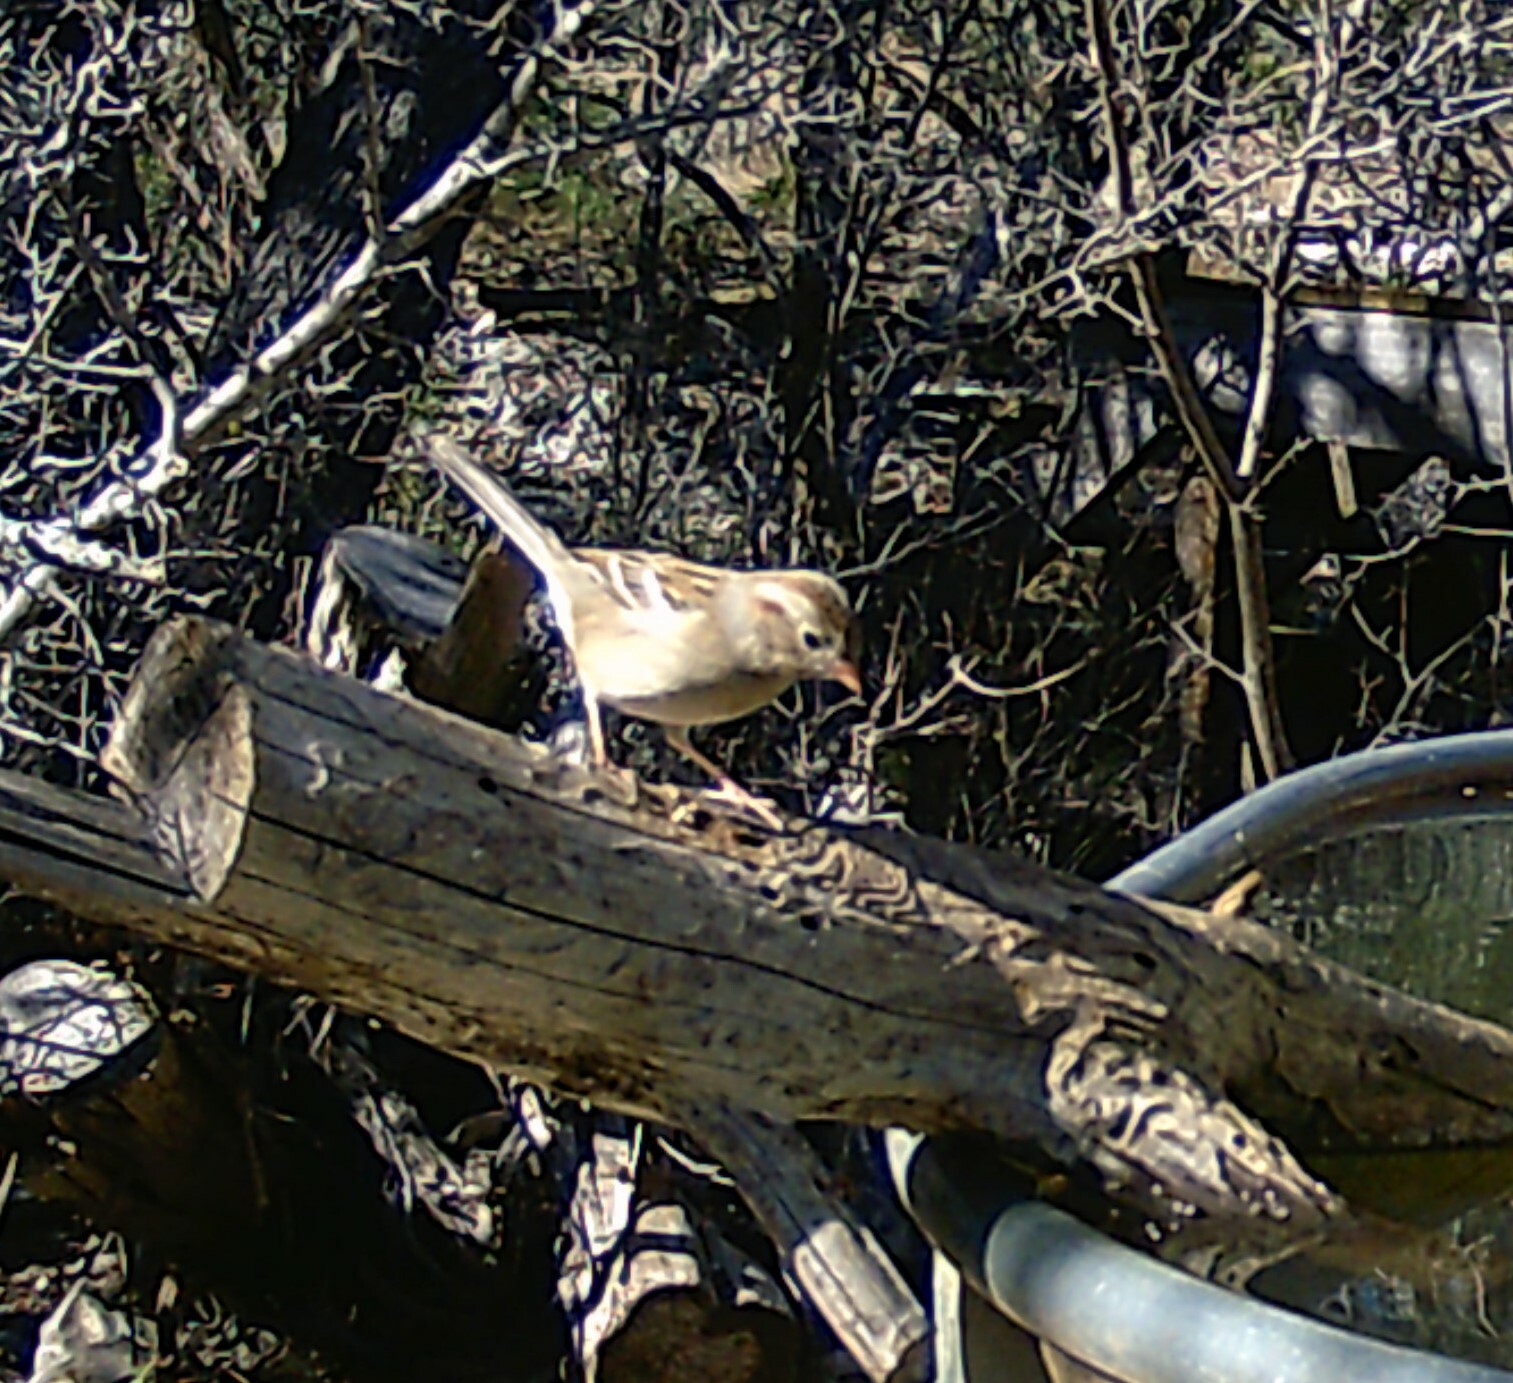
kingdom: Animalia
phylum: Chordata
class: Aves
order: Passeriformes
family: Passerellidae
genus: Spizella
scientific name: Spizella pusilla
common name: Field sparrow
